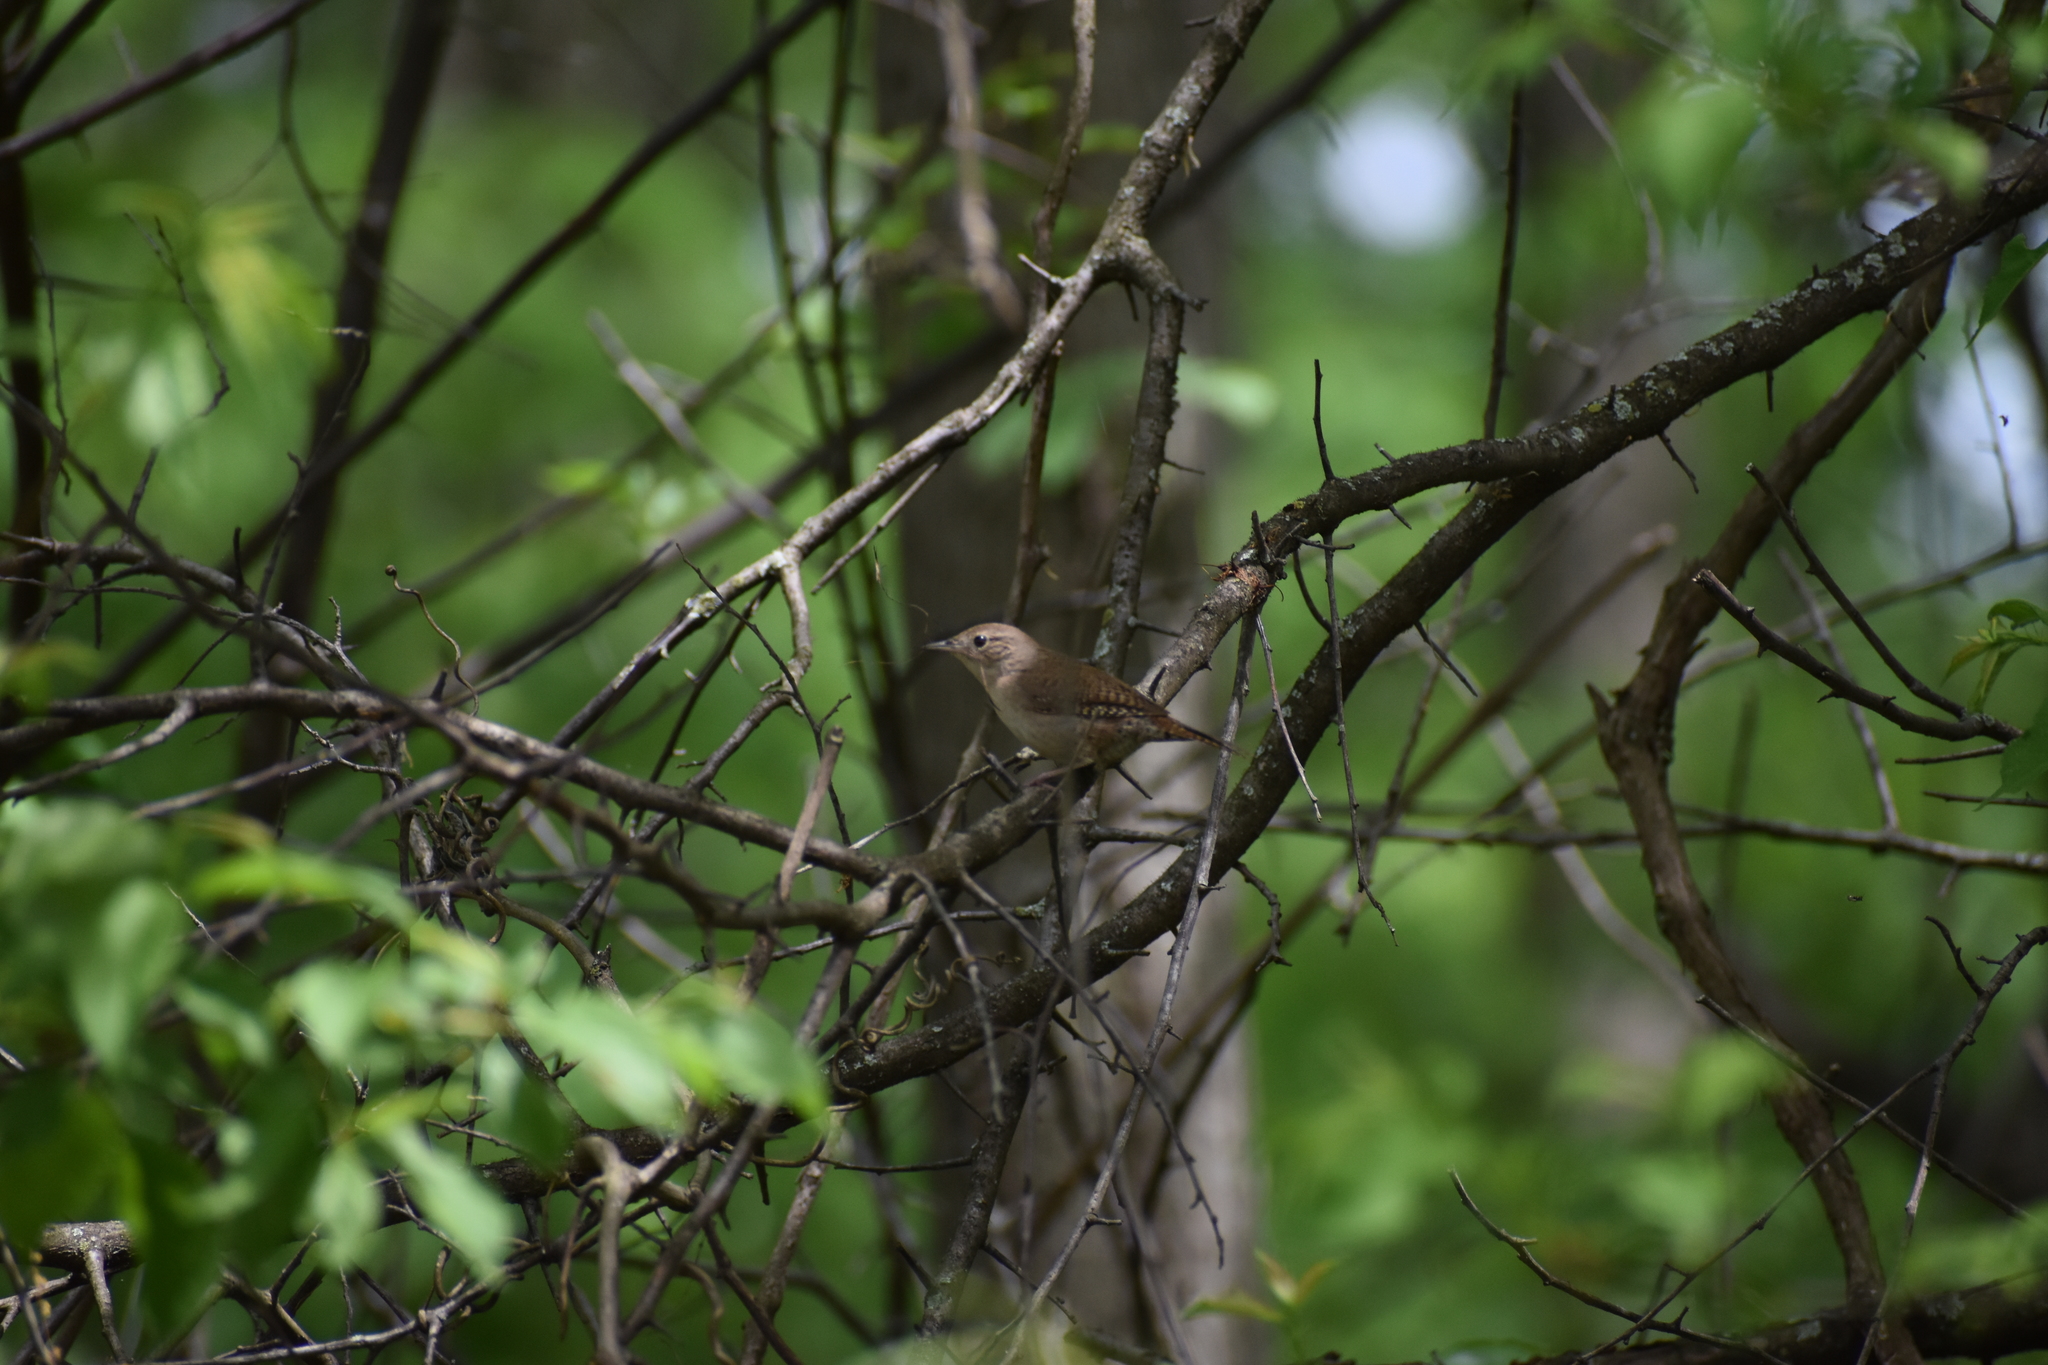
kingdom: Animalia
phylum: Chordata
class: Aves
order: Passeriformes
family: Troglodytidae
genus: Troglodytes
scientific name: Troglodytes aedon
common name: House wren
